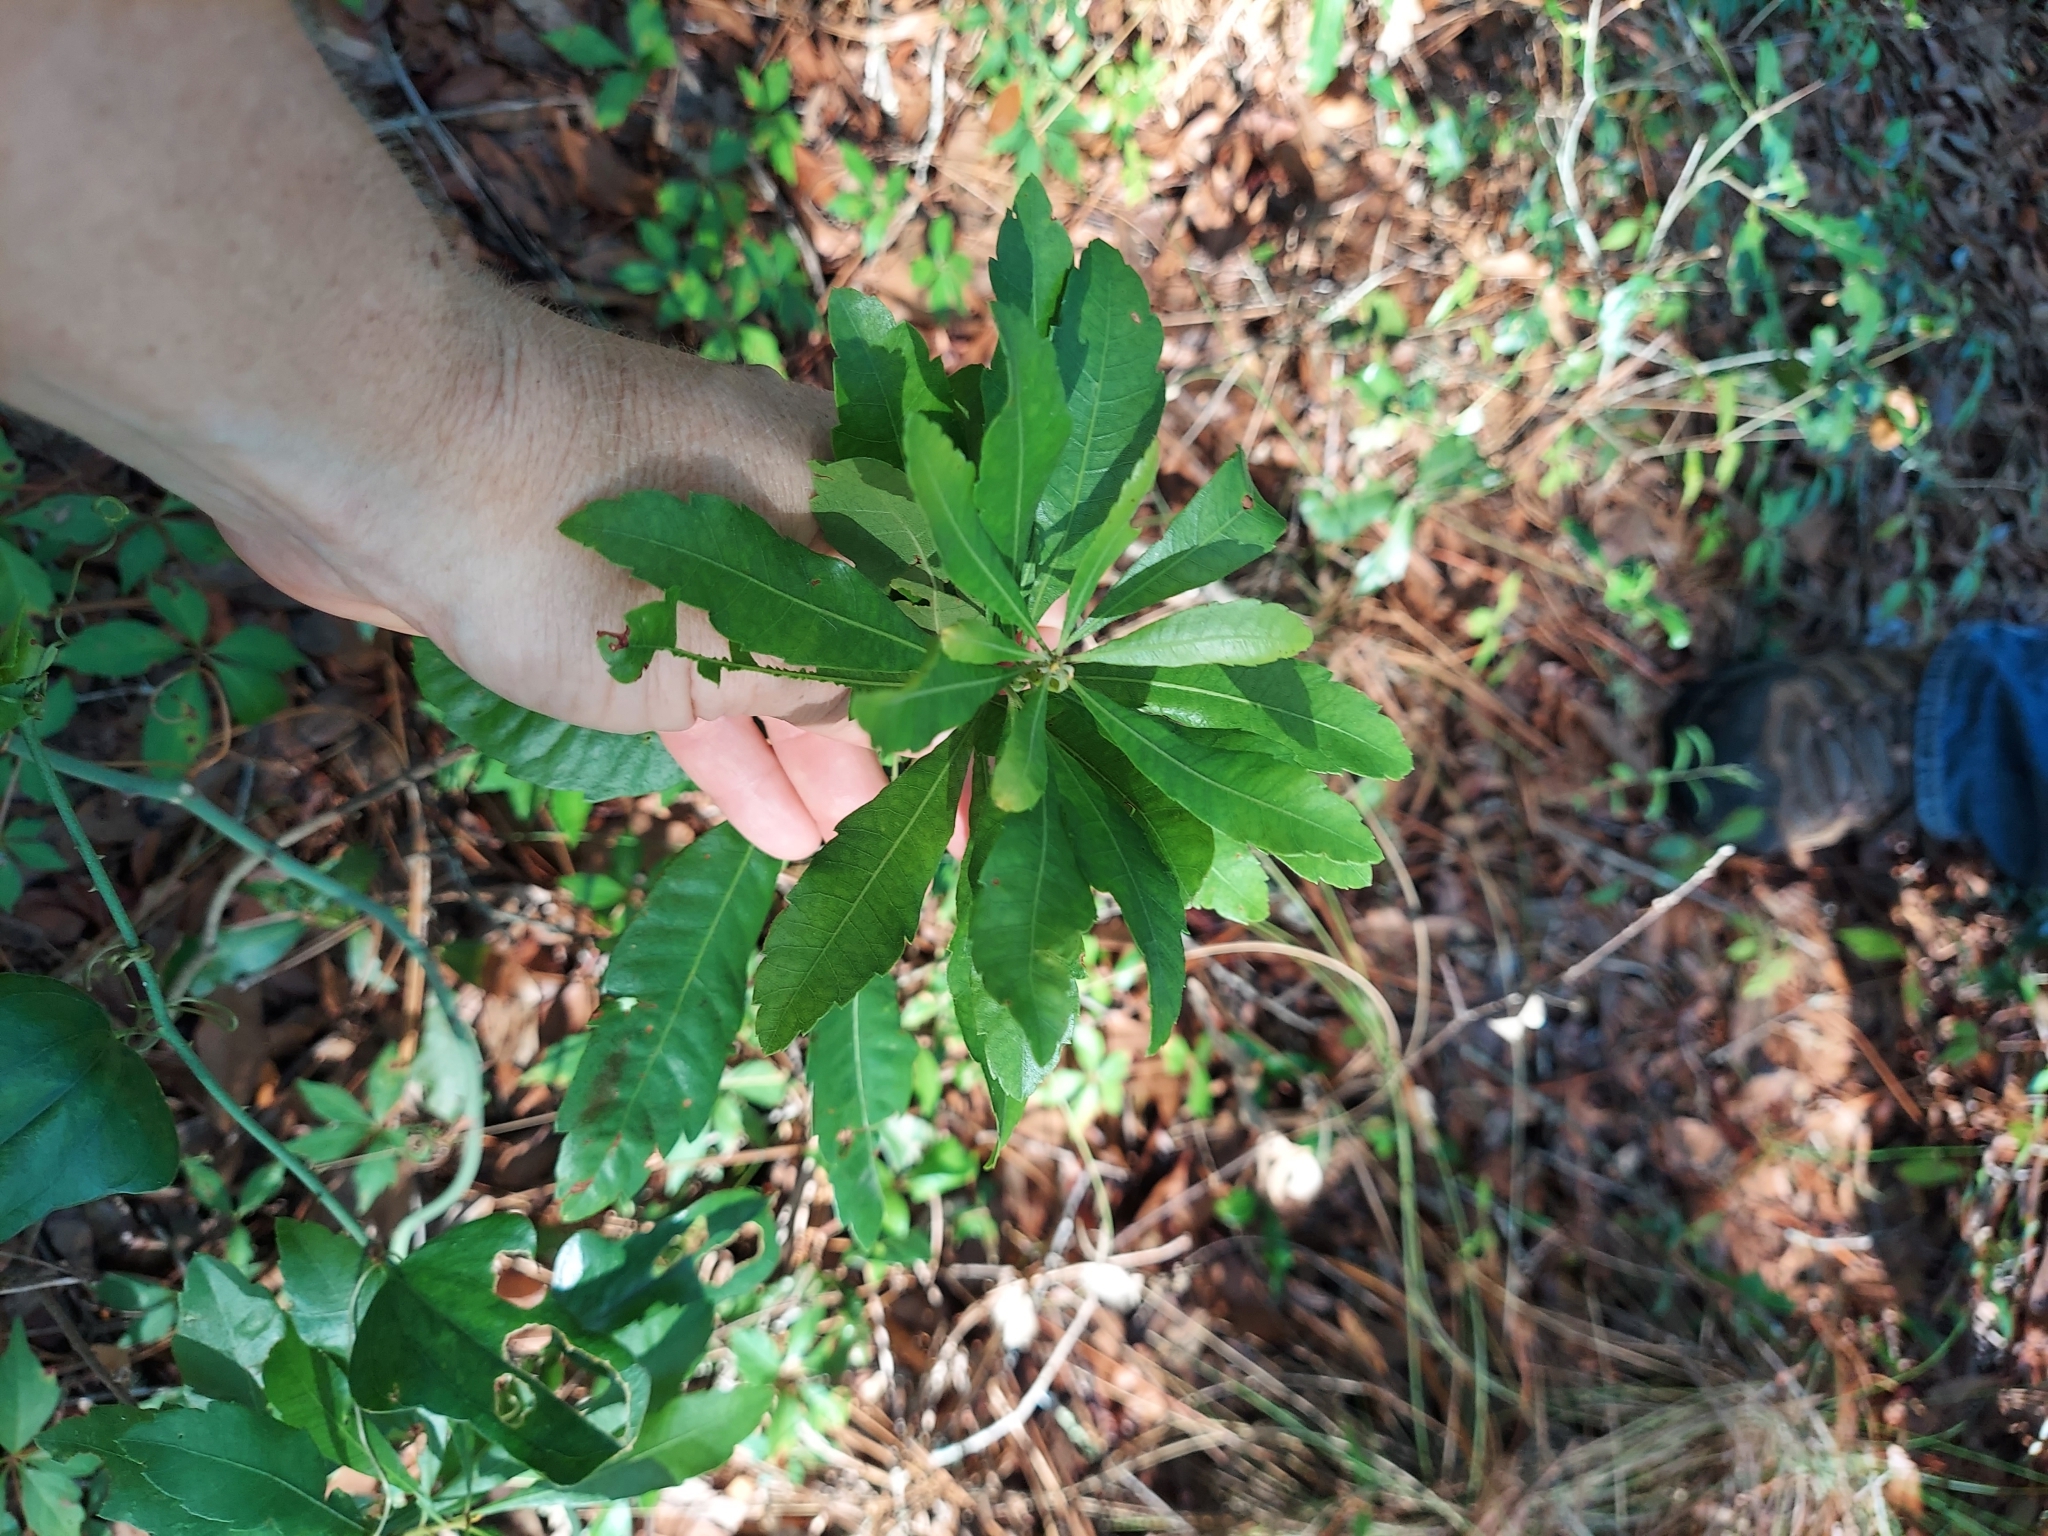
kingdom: Plantae
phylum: Tracheophyta
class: Magnoliopsida
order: Fagales
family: Myricaceae
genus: Morella
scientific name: Morella cerifera
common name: Wax myrtle
